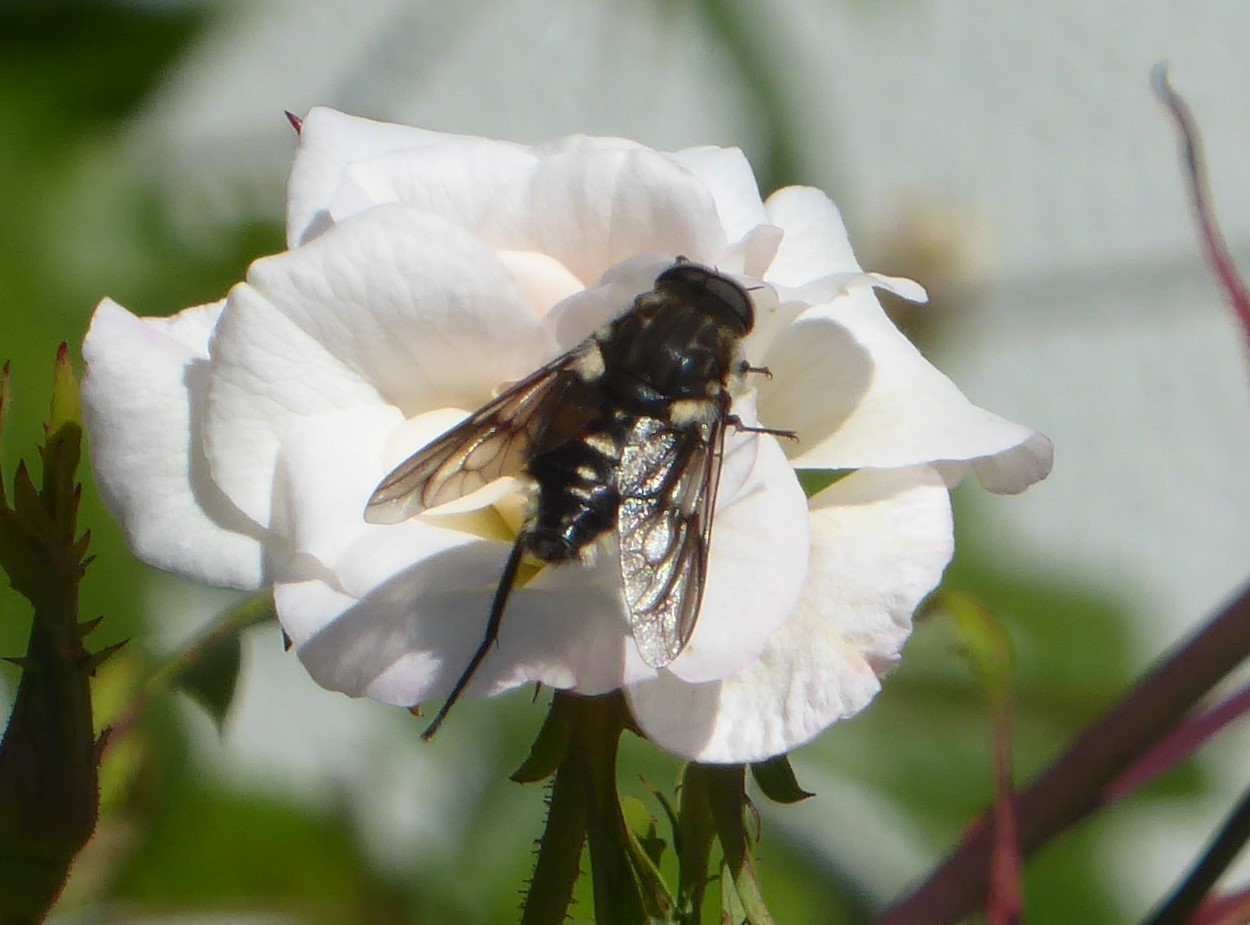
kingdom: Animalia
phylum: Arthropoda
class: Insecta
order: Diptera
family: Tabanidae
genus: Scaptia
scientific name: Scaptia
